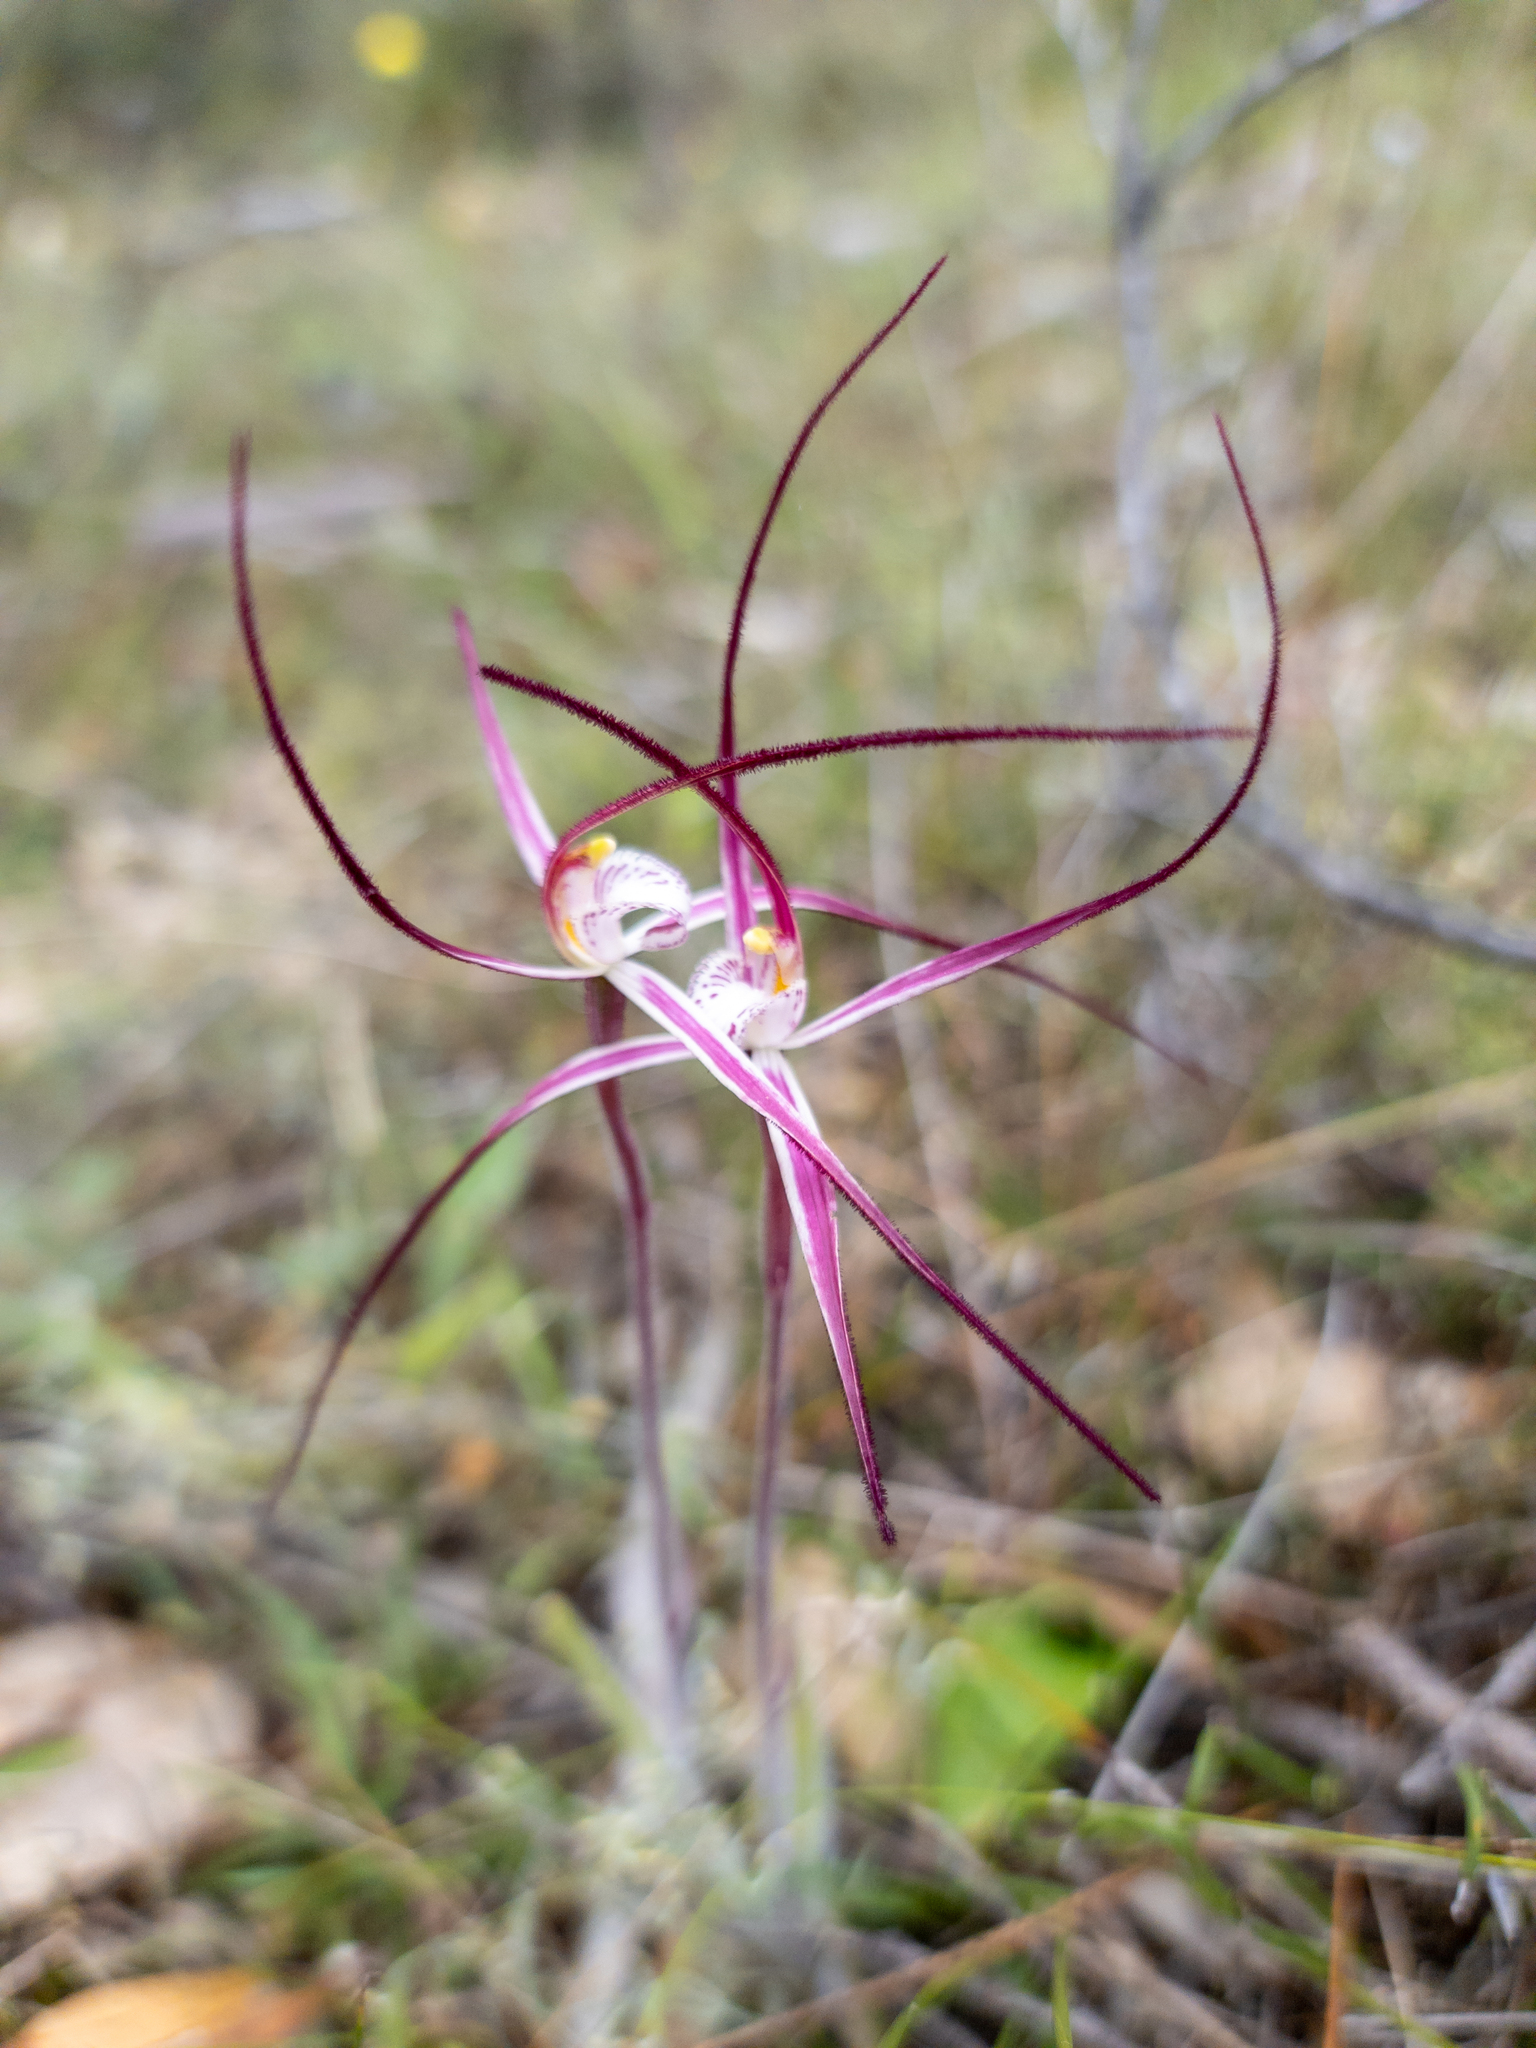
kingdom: Plantae
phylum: Tracheophyta
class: Liliopsida
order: Asparagales
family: Orchidaceae
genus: Caladenia
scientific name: Caladenia polychroma
